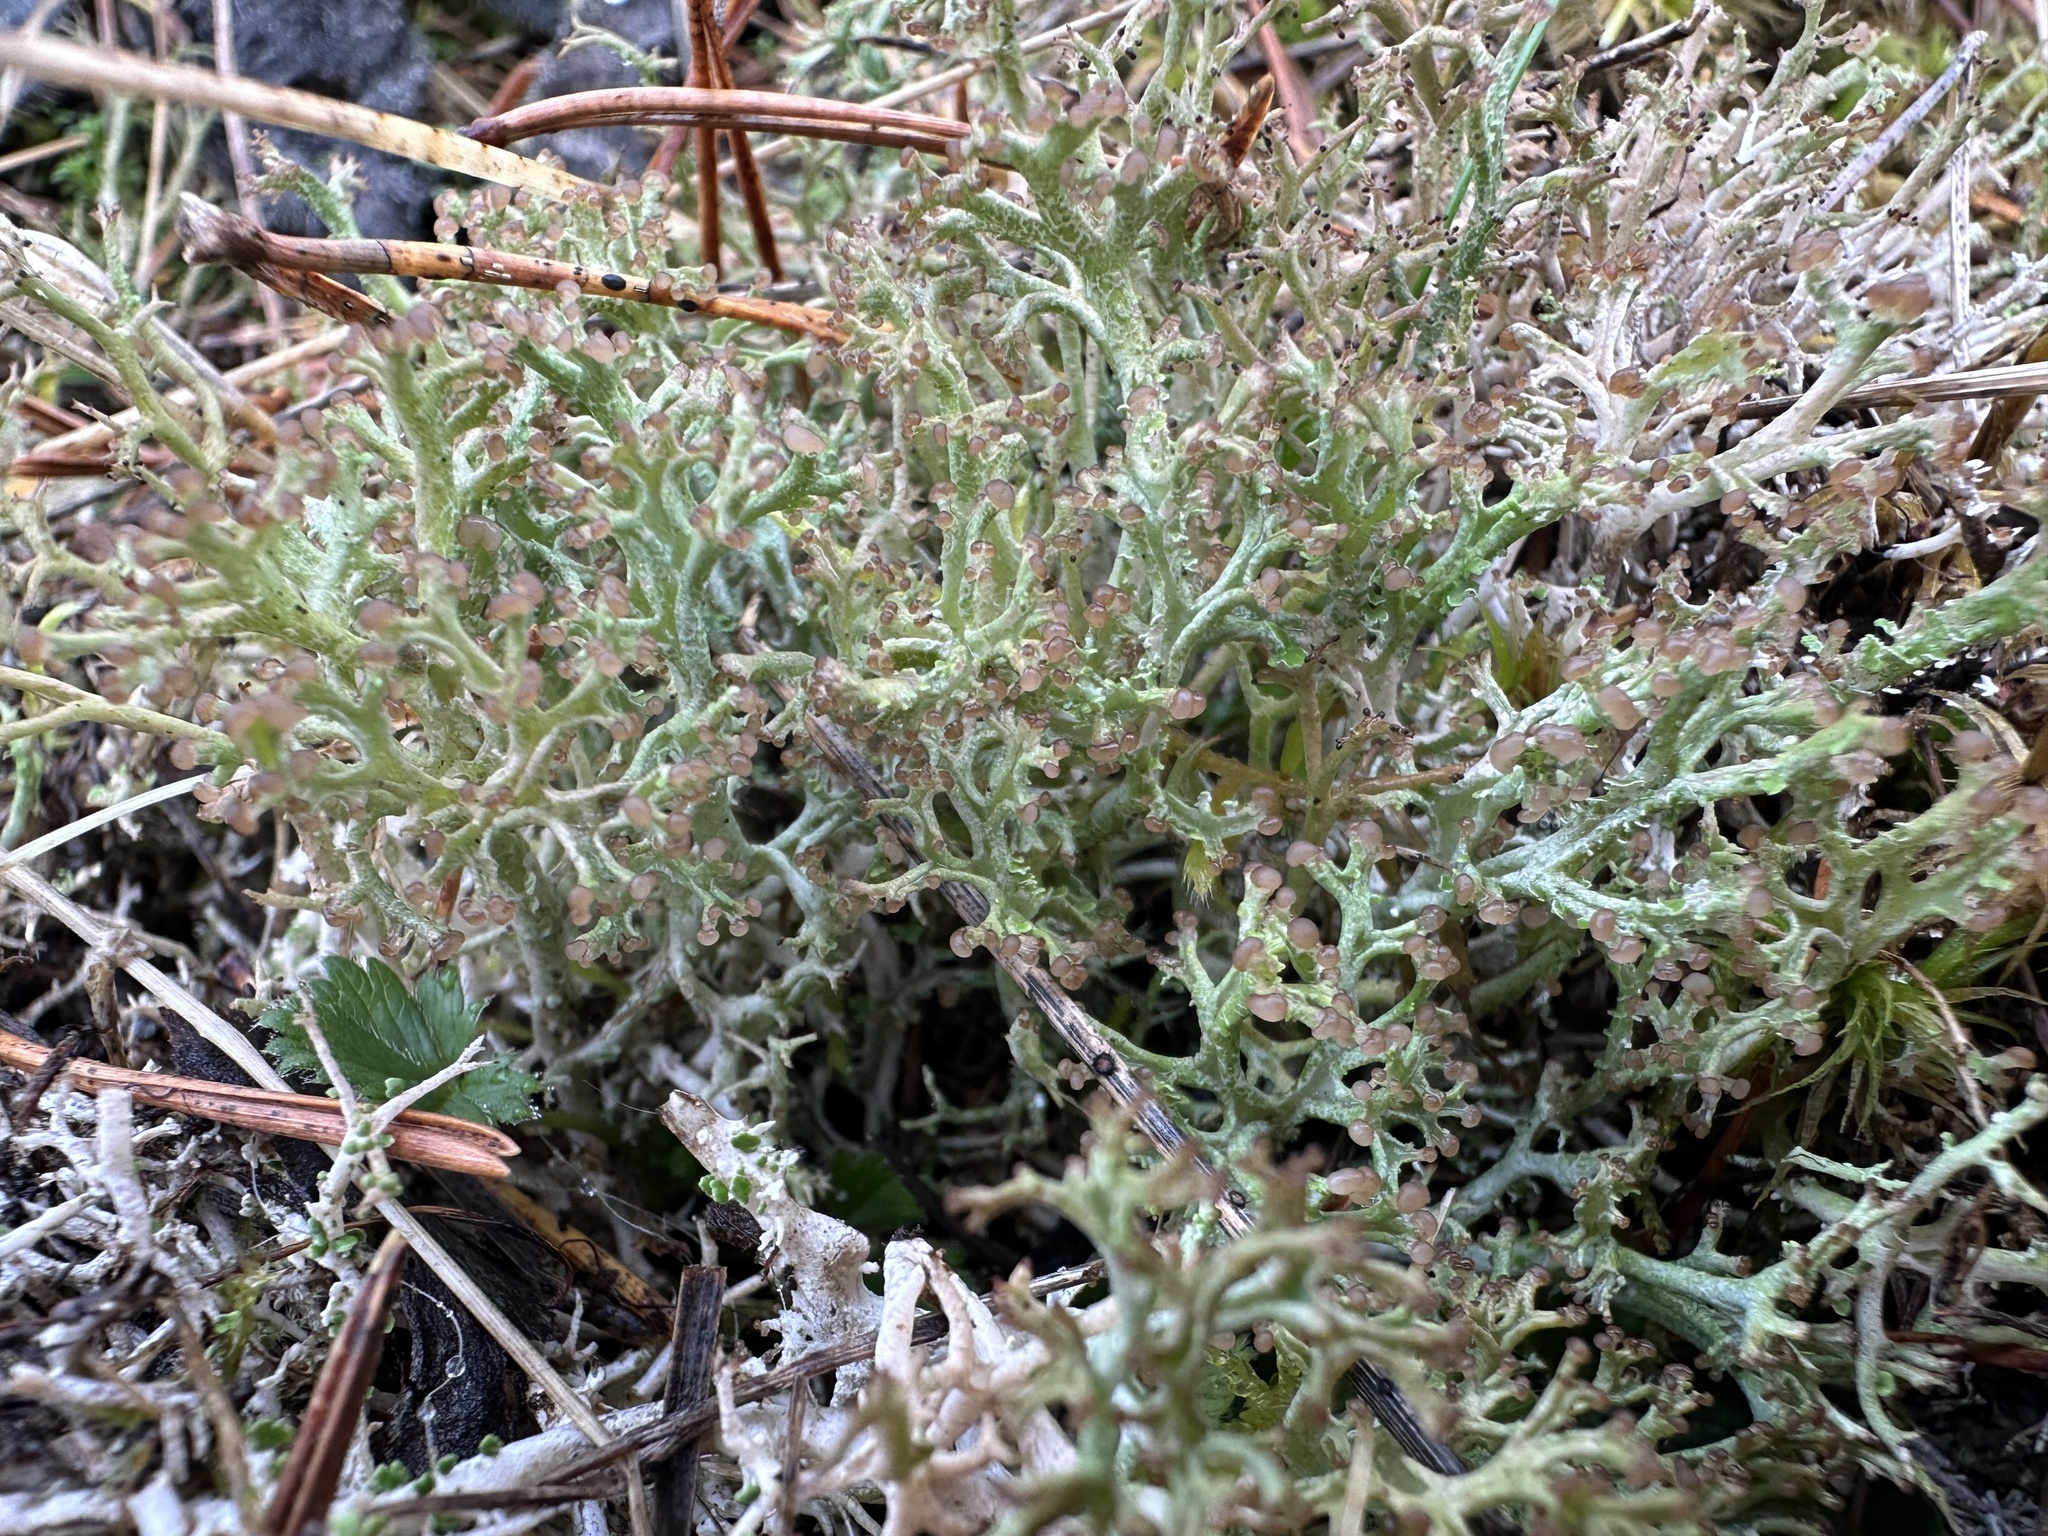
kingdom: Fungi
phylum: Ascomycota
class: Lecanoromycetes
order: Lecanorales
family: Cladoniaceae
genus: Cladonia
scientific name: Cladonia furcata
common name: Many-forked cladonia
